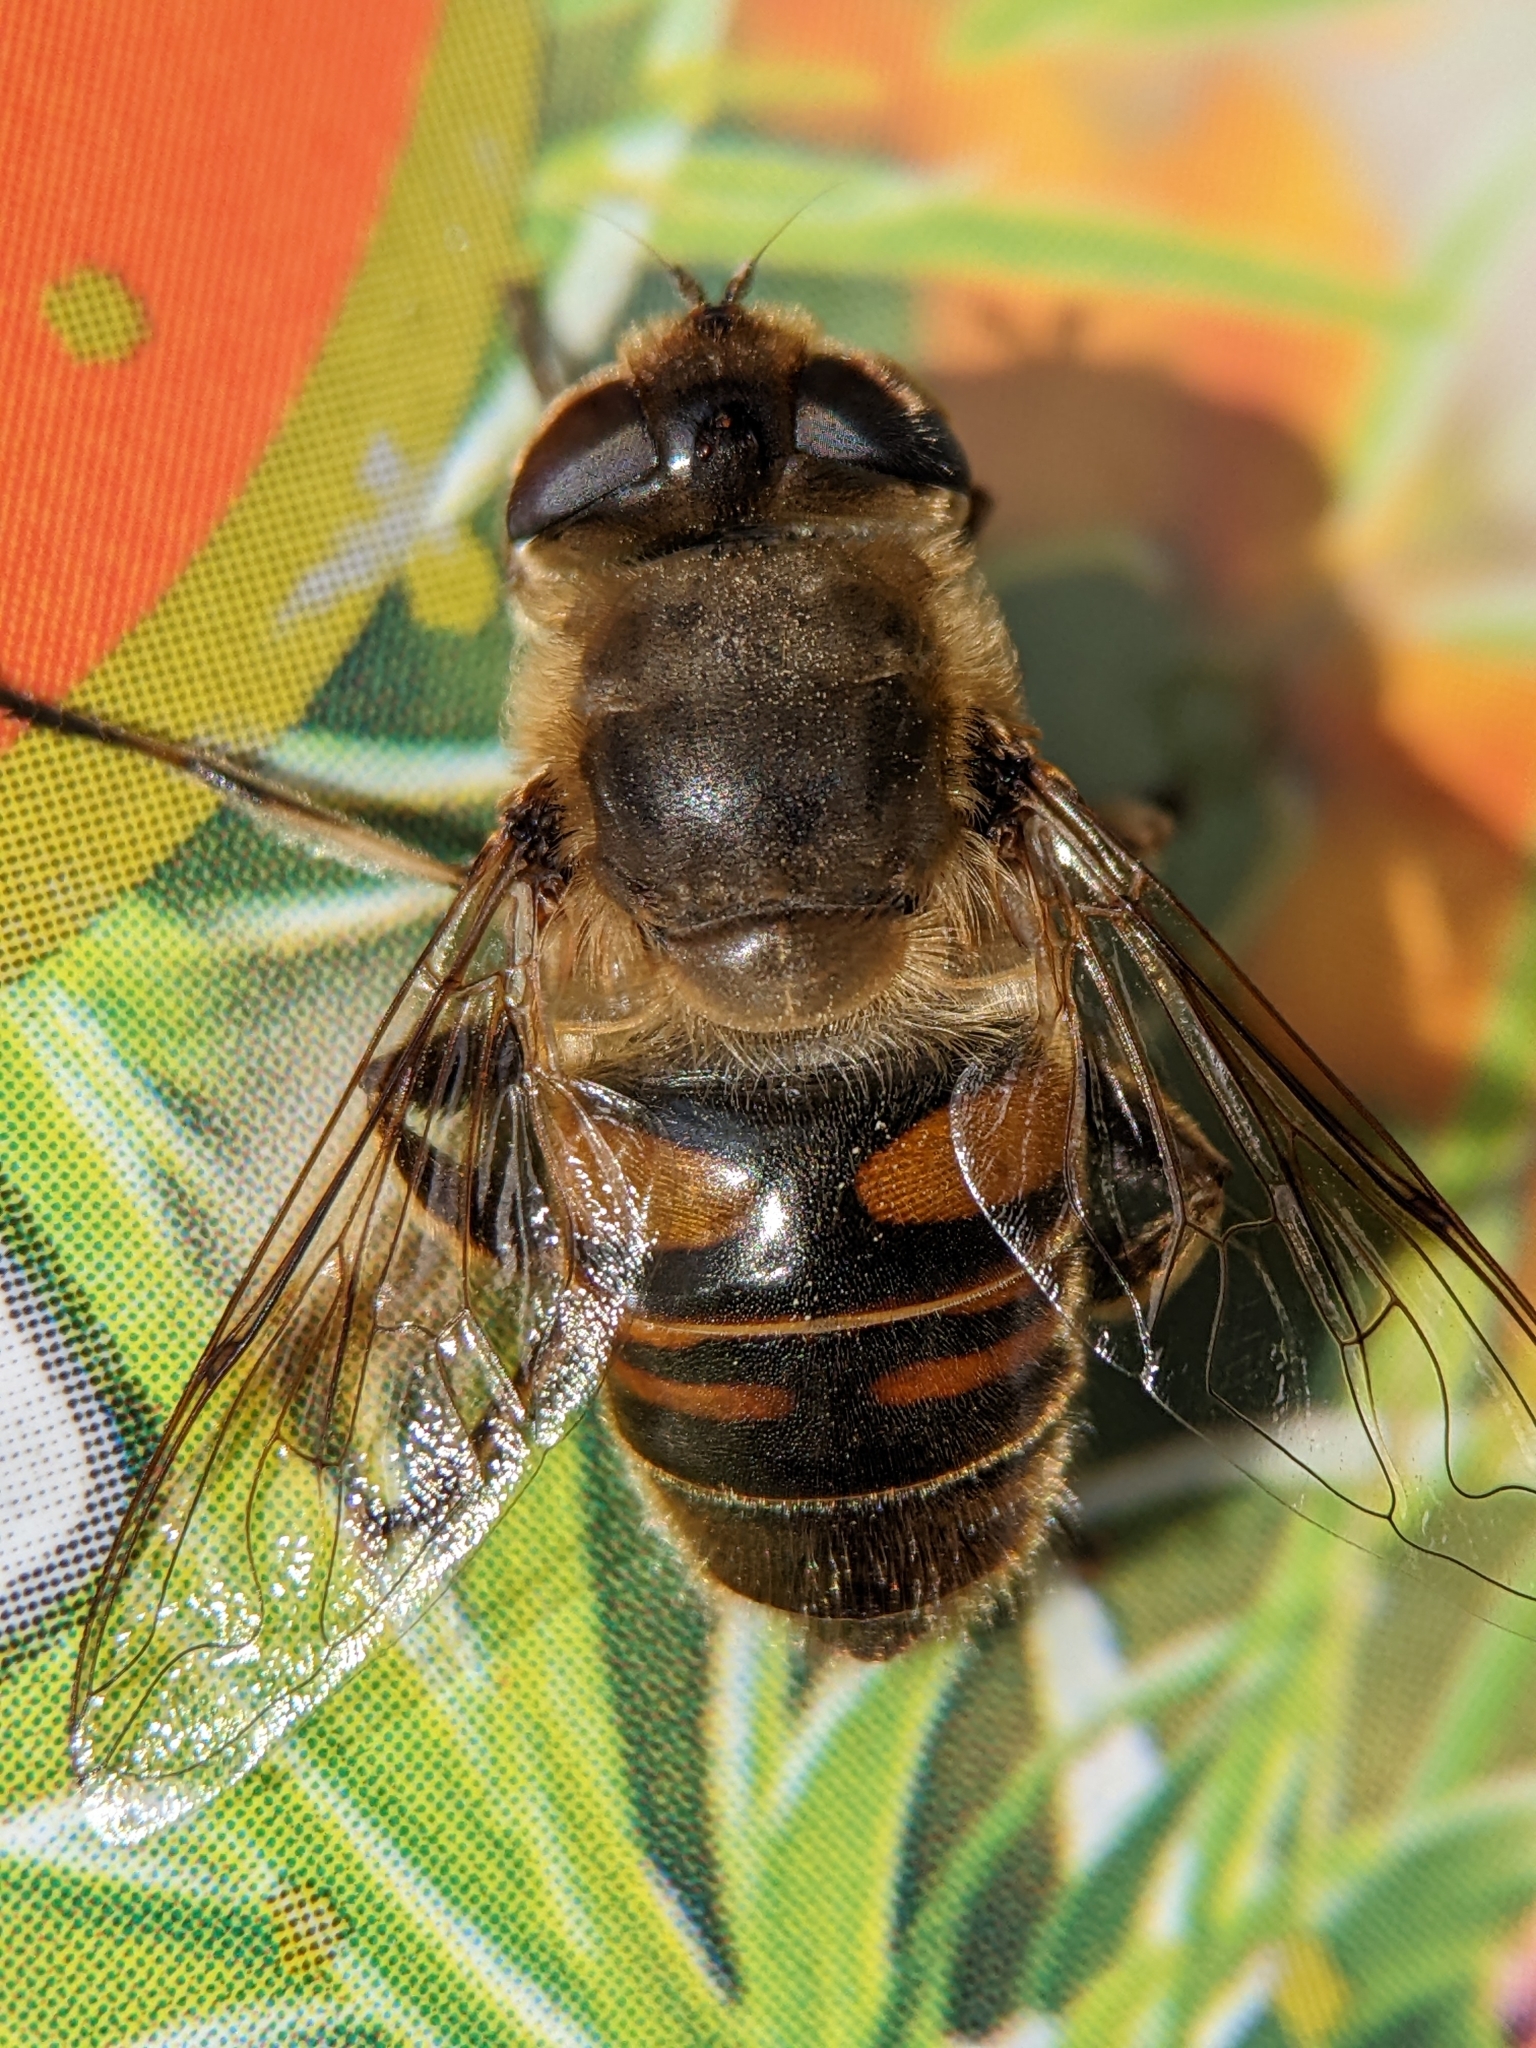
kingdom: Animalia
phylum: Arthropoda
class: Insecta
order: Diptera
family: Syrphidae
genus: Eristalis
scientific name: Eristalis tenax
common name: Drone fly
